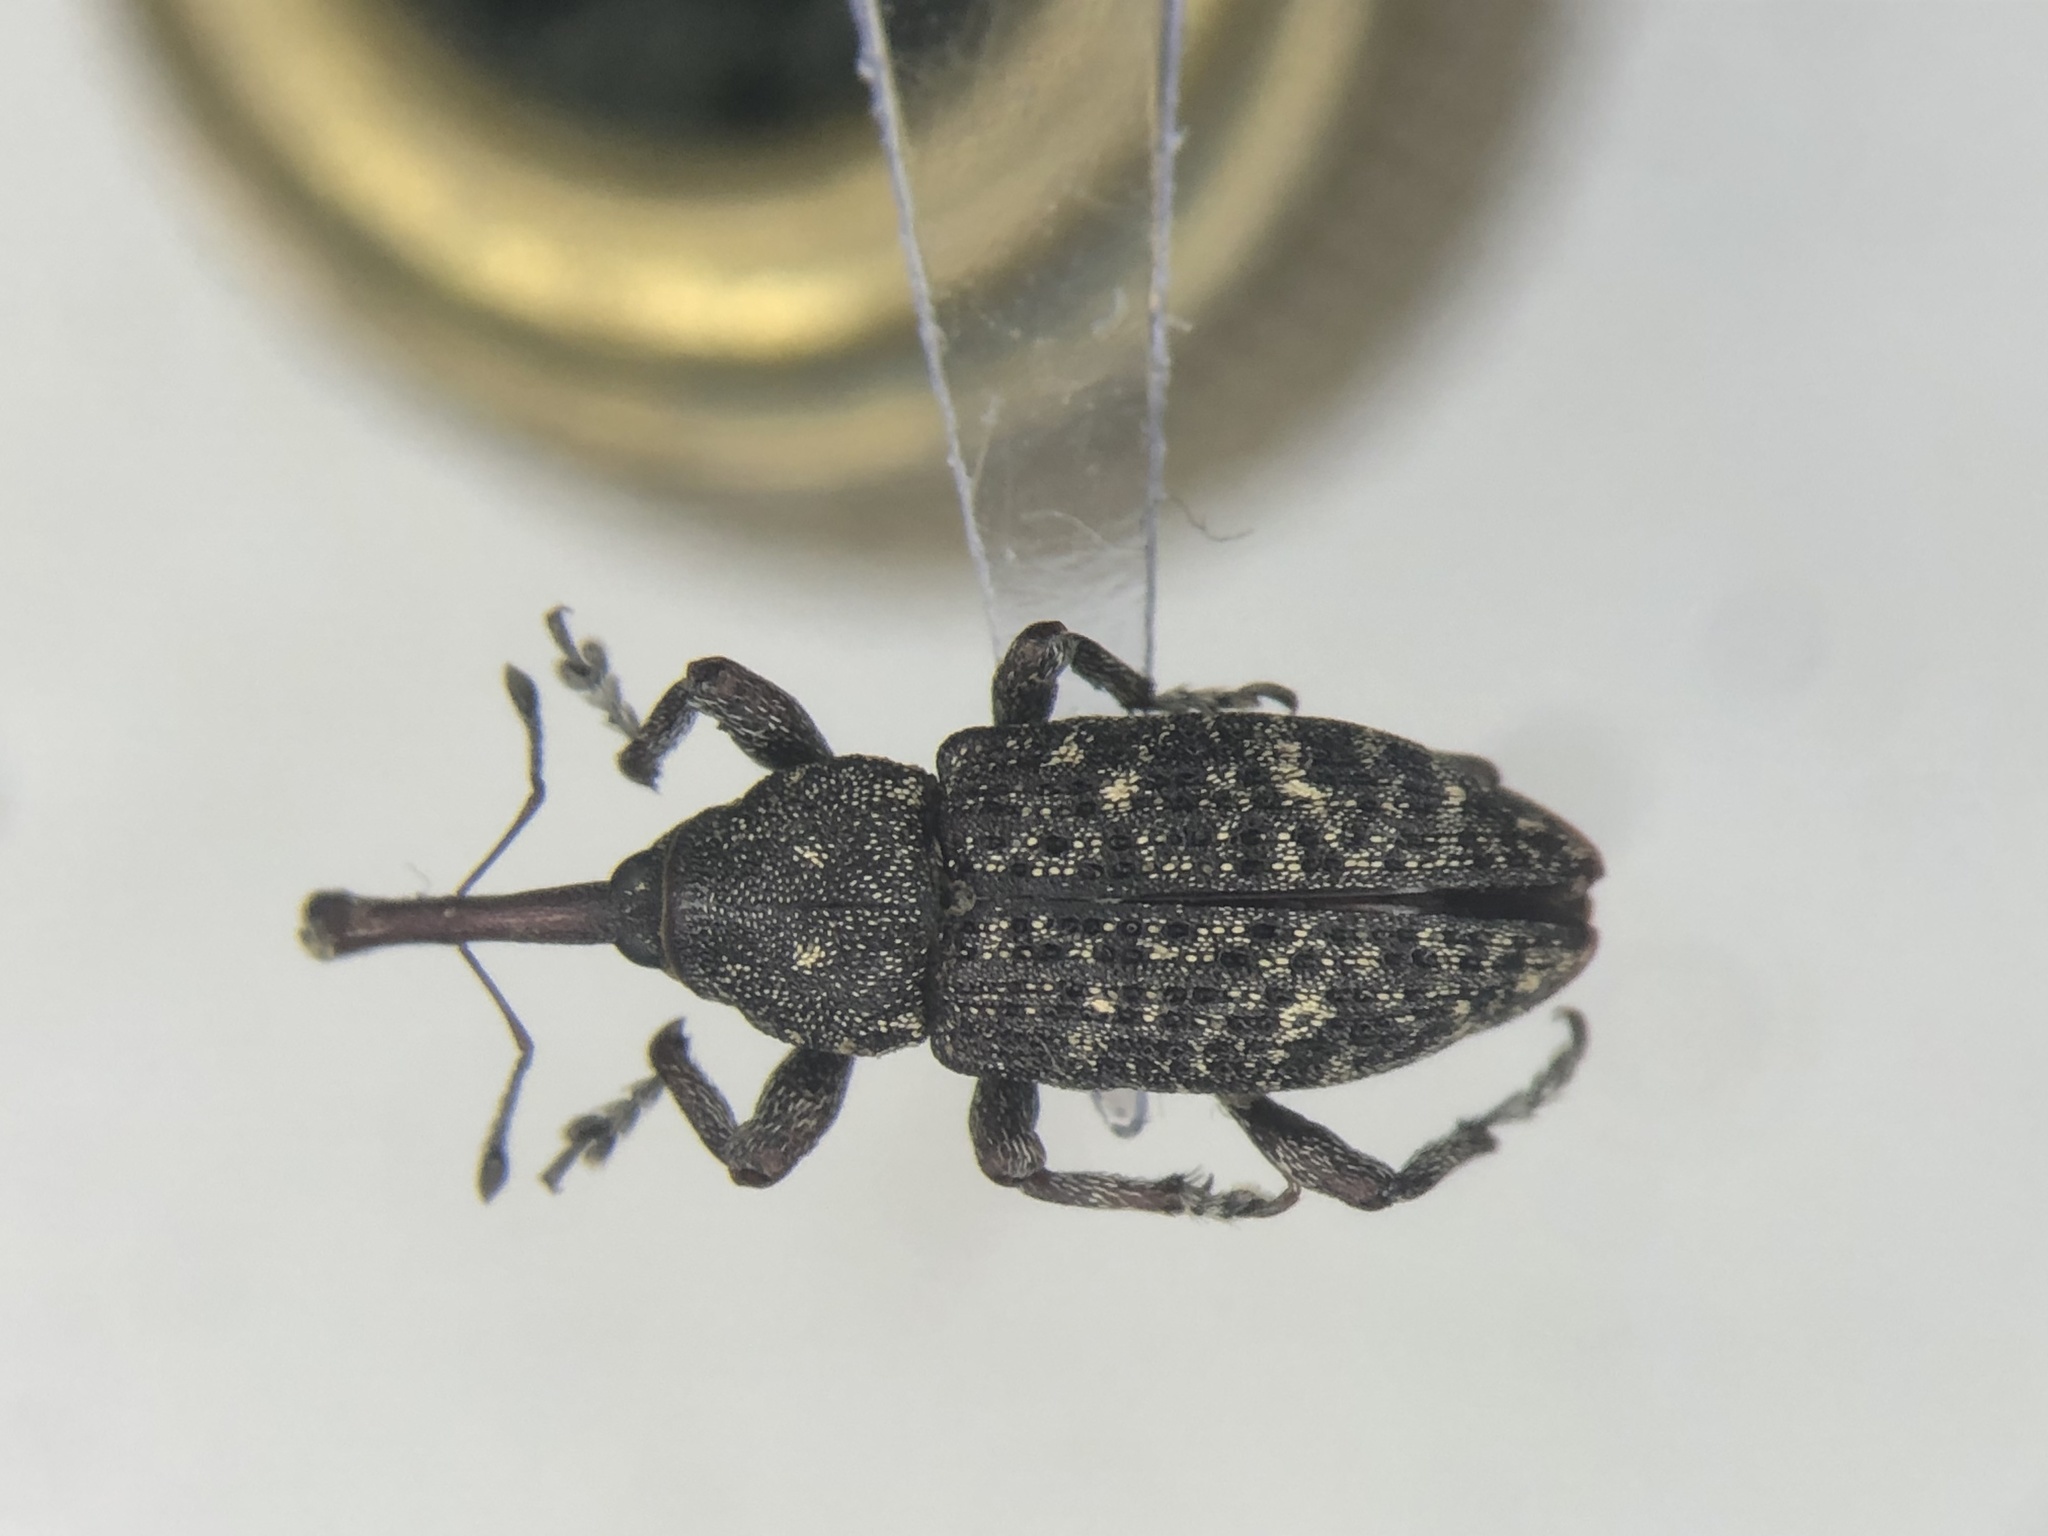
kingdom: Animalia
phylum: Arthropoda
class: Insecta
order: Coleoptera
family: Curculionidae
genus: Pissodes
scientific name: Pissodes striatulus
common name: Balsam bark weevil
